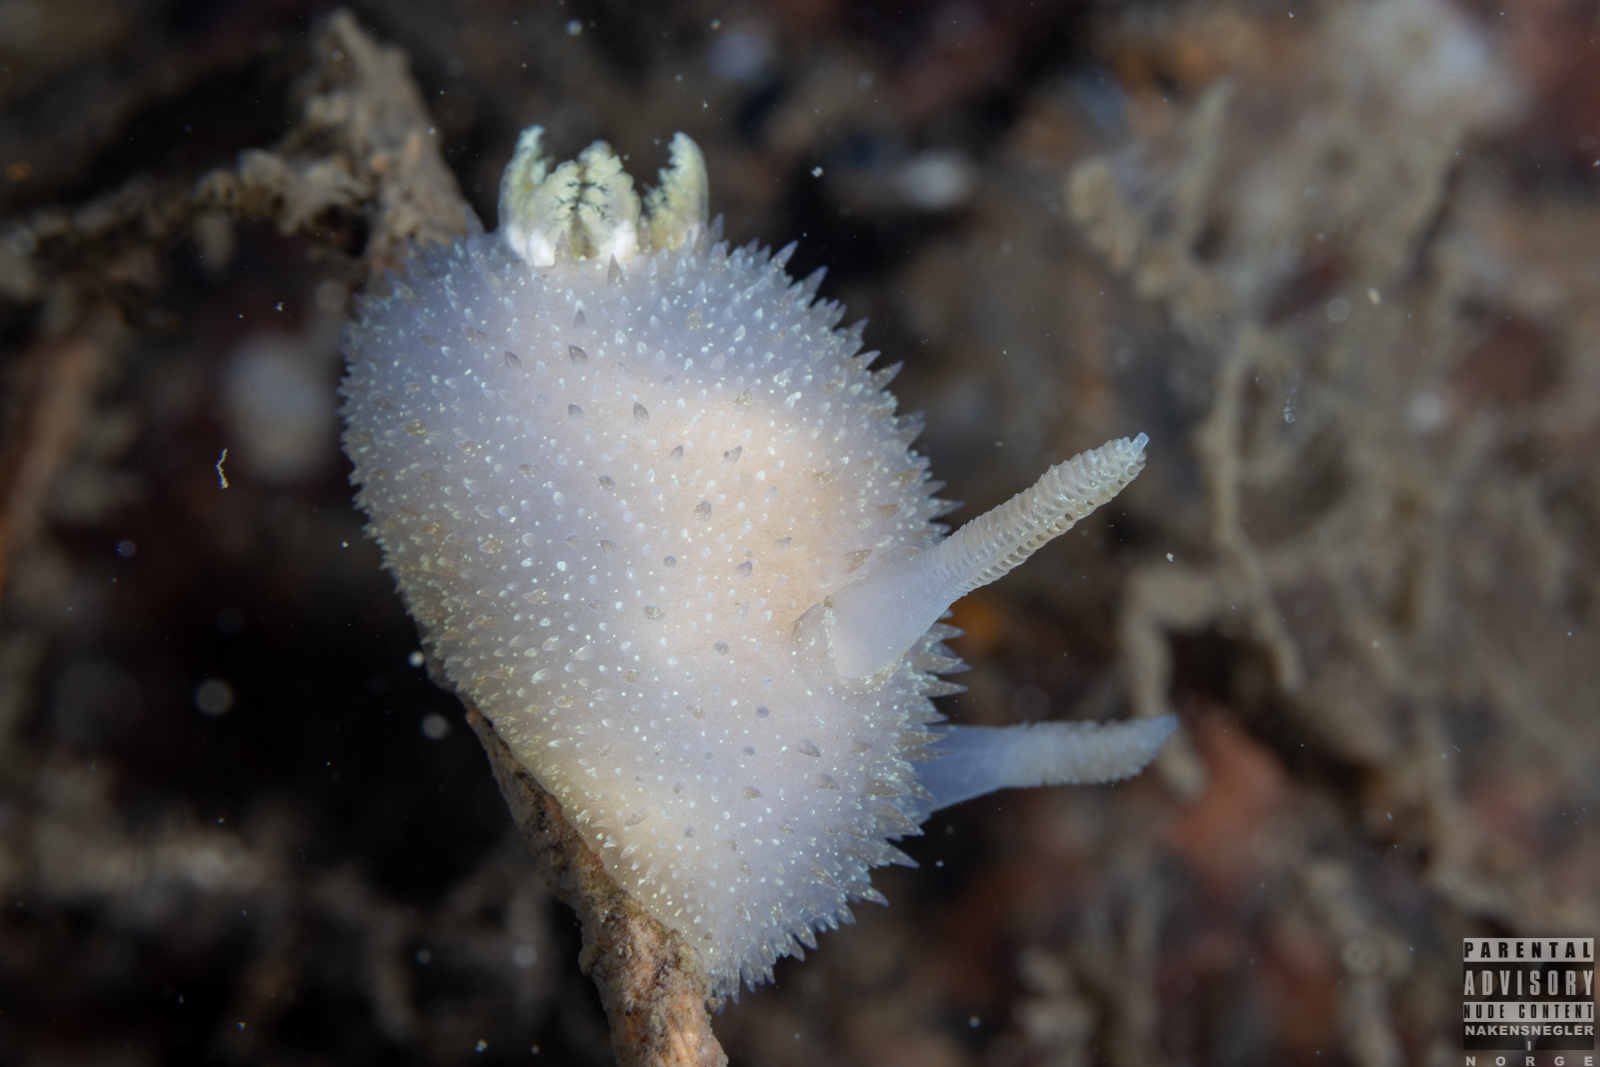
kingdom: Animalia
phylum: Mollusca
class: Gastropoda
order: Nudibranchia
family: Onchidorididae
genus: Acanthodoris
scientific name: Acanthodoris pilosa
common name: Hairy spiny doris
